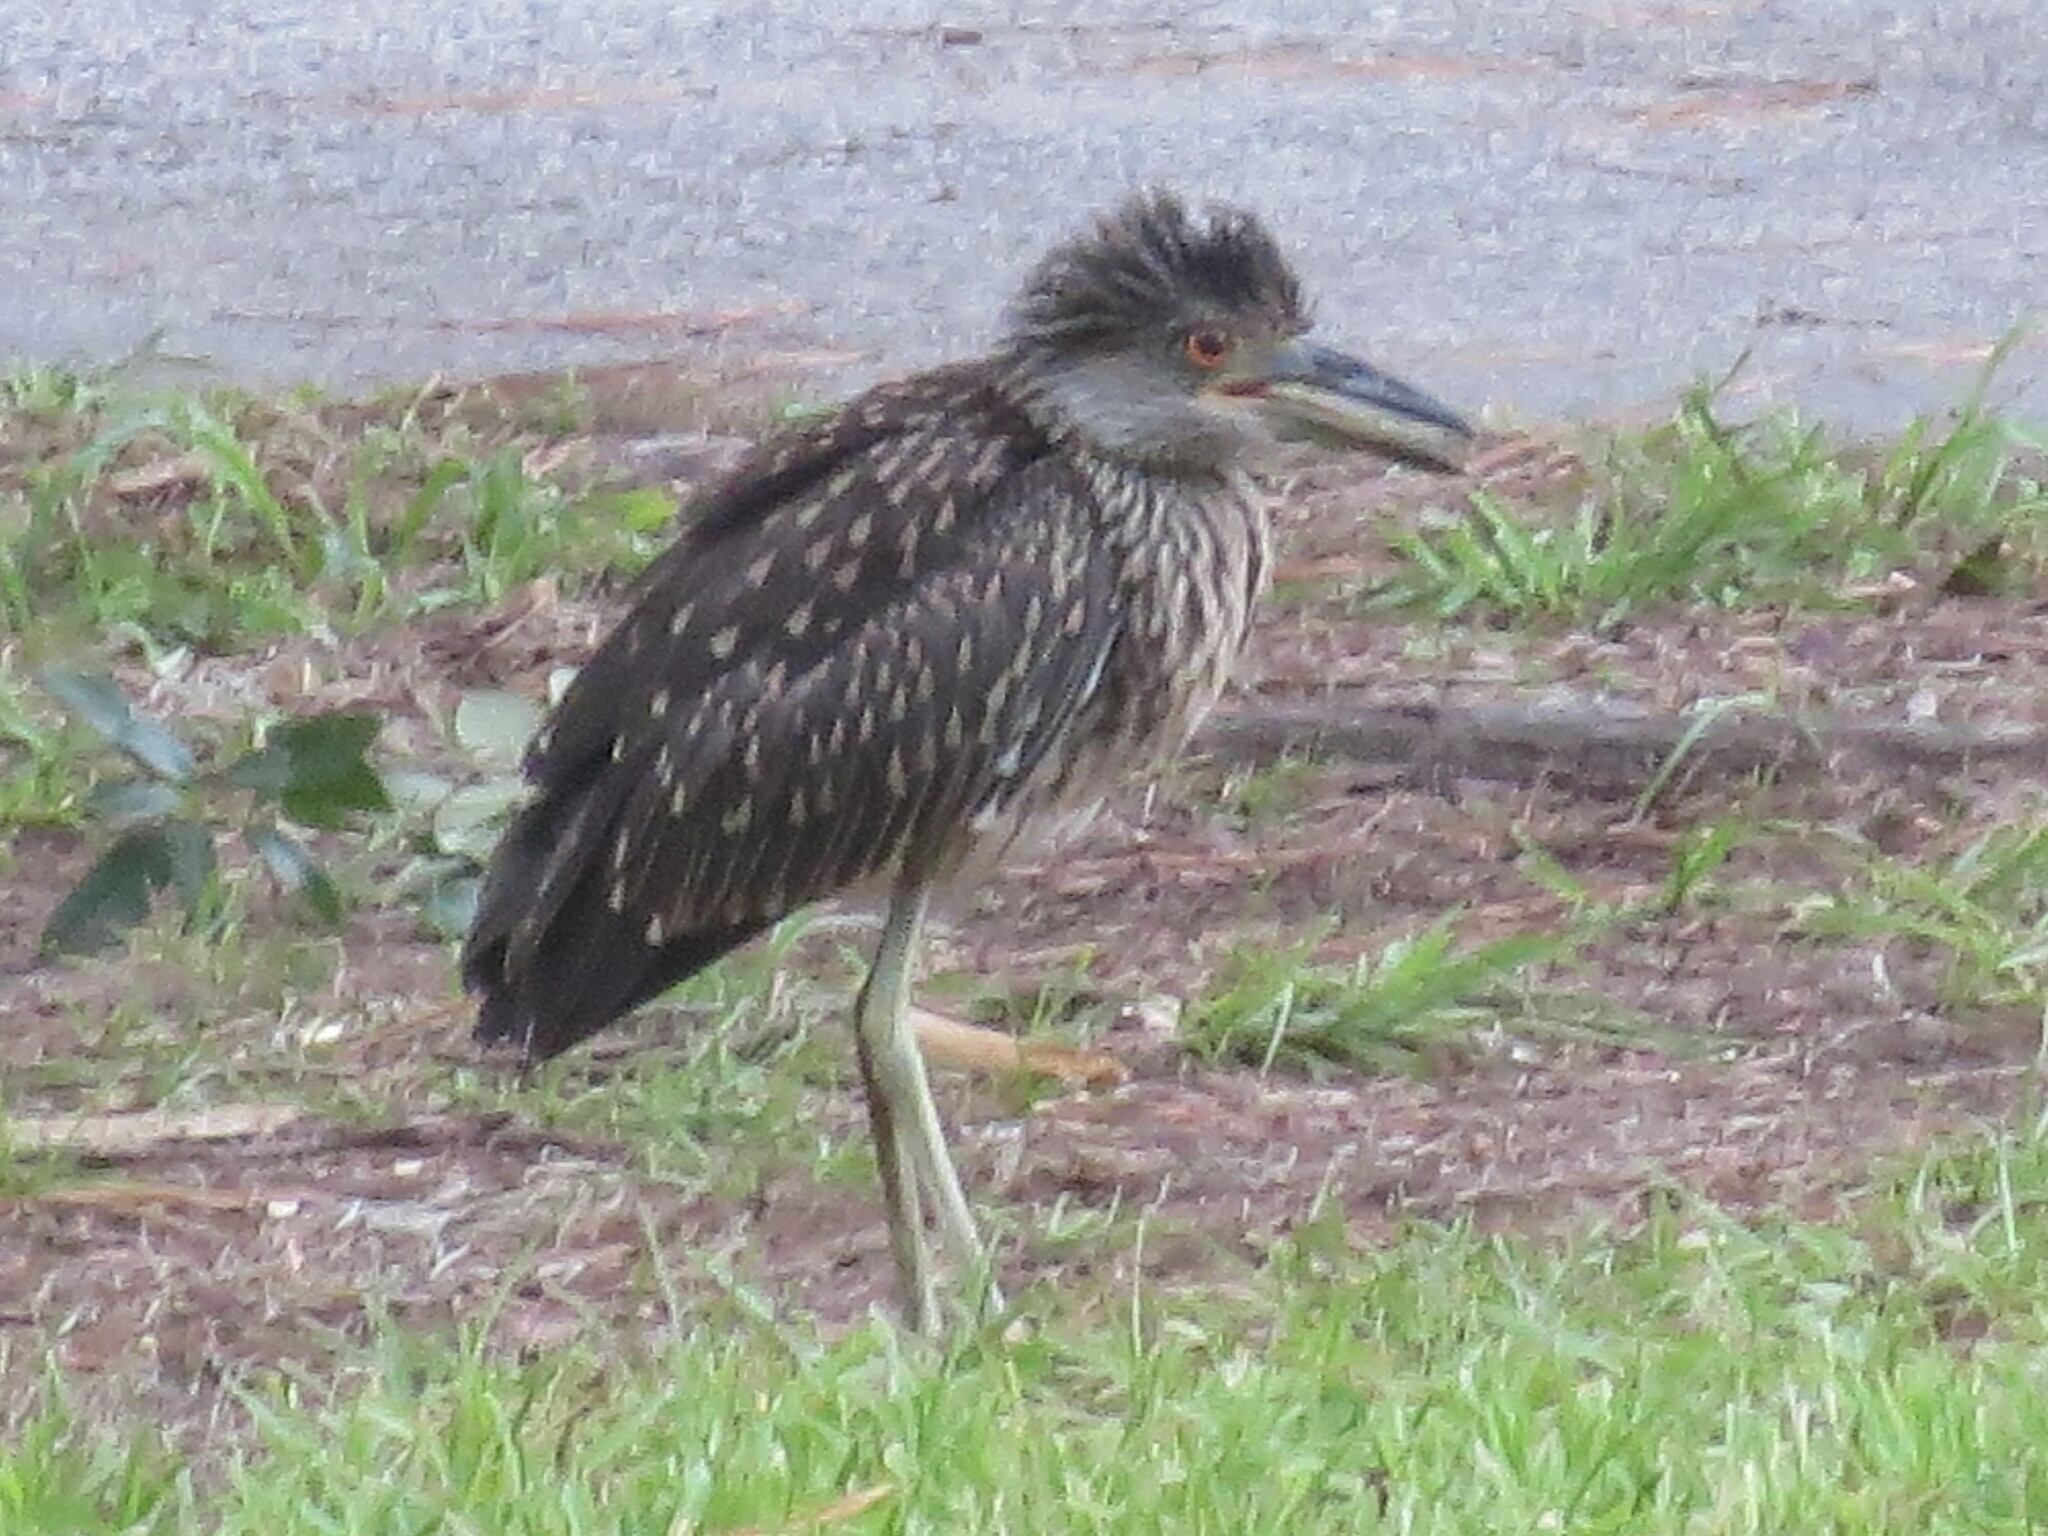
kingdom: Animalia
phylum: Chordata
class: Aves
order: Pelecaniformes
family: Ardeidae
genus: Nyctanassa
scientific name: Nyctanassa violacea
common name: Yellow-crowned night heron
